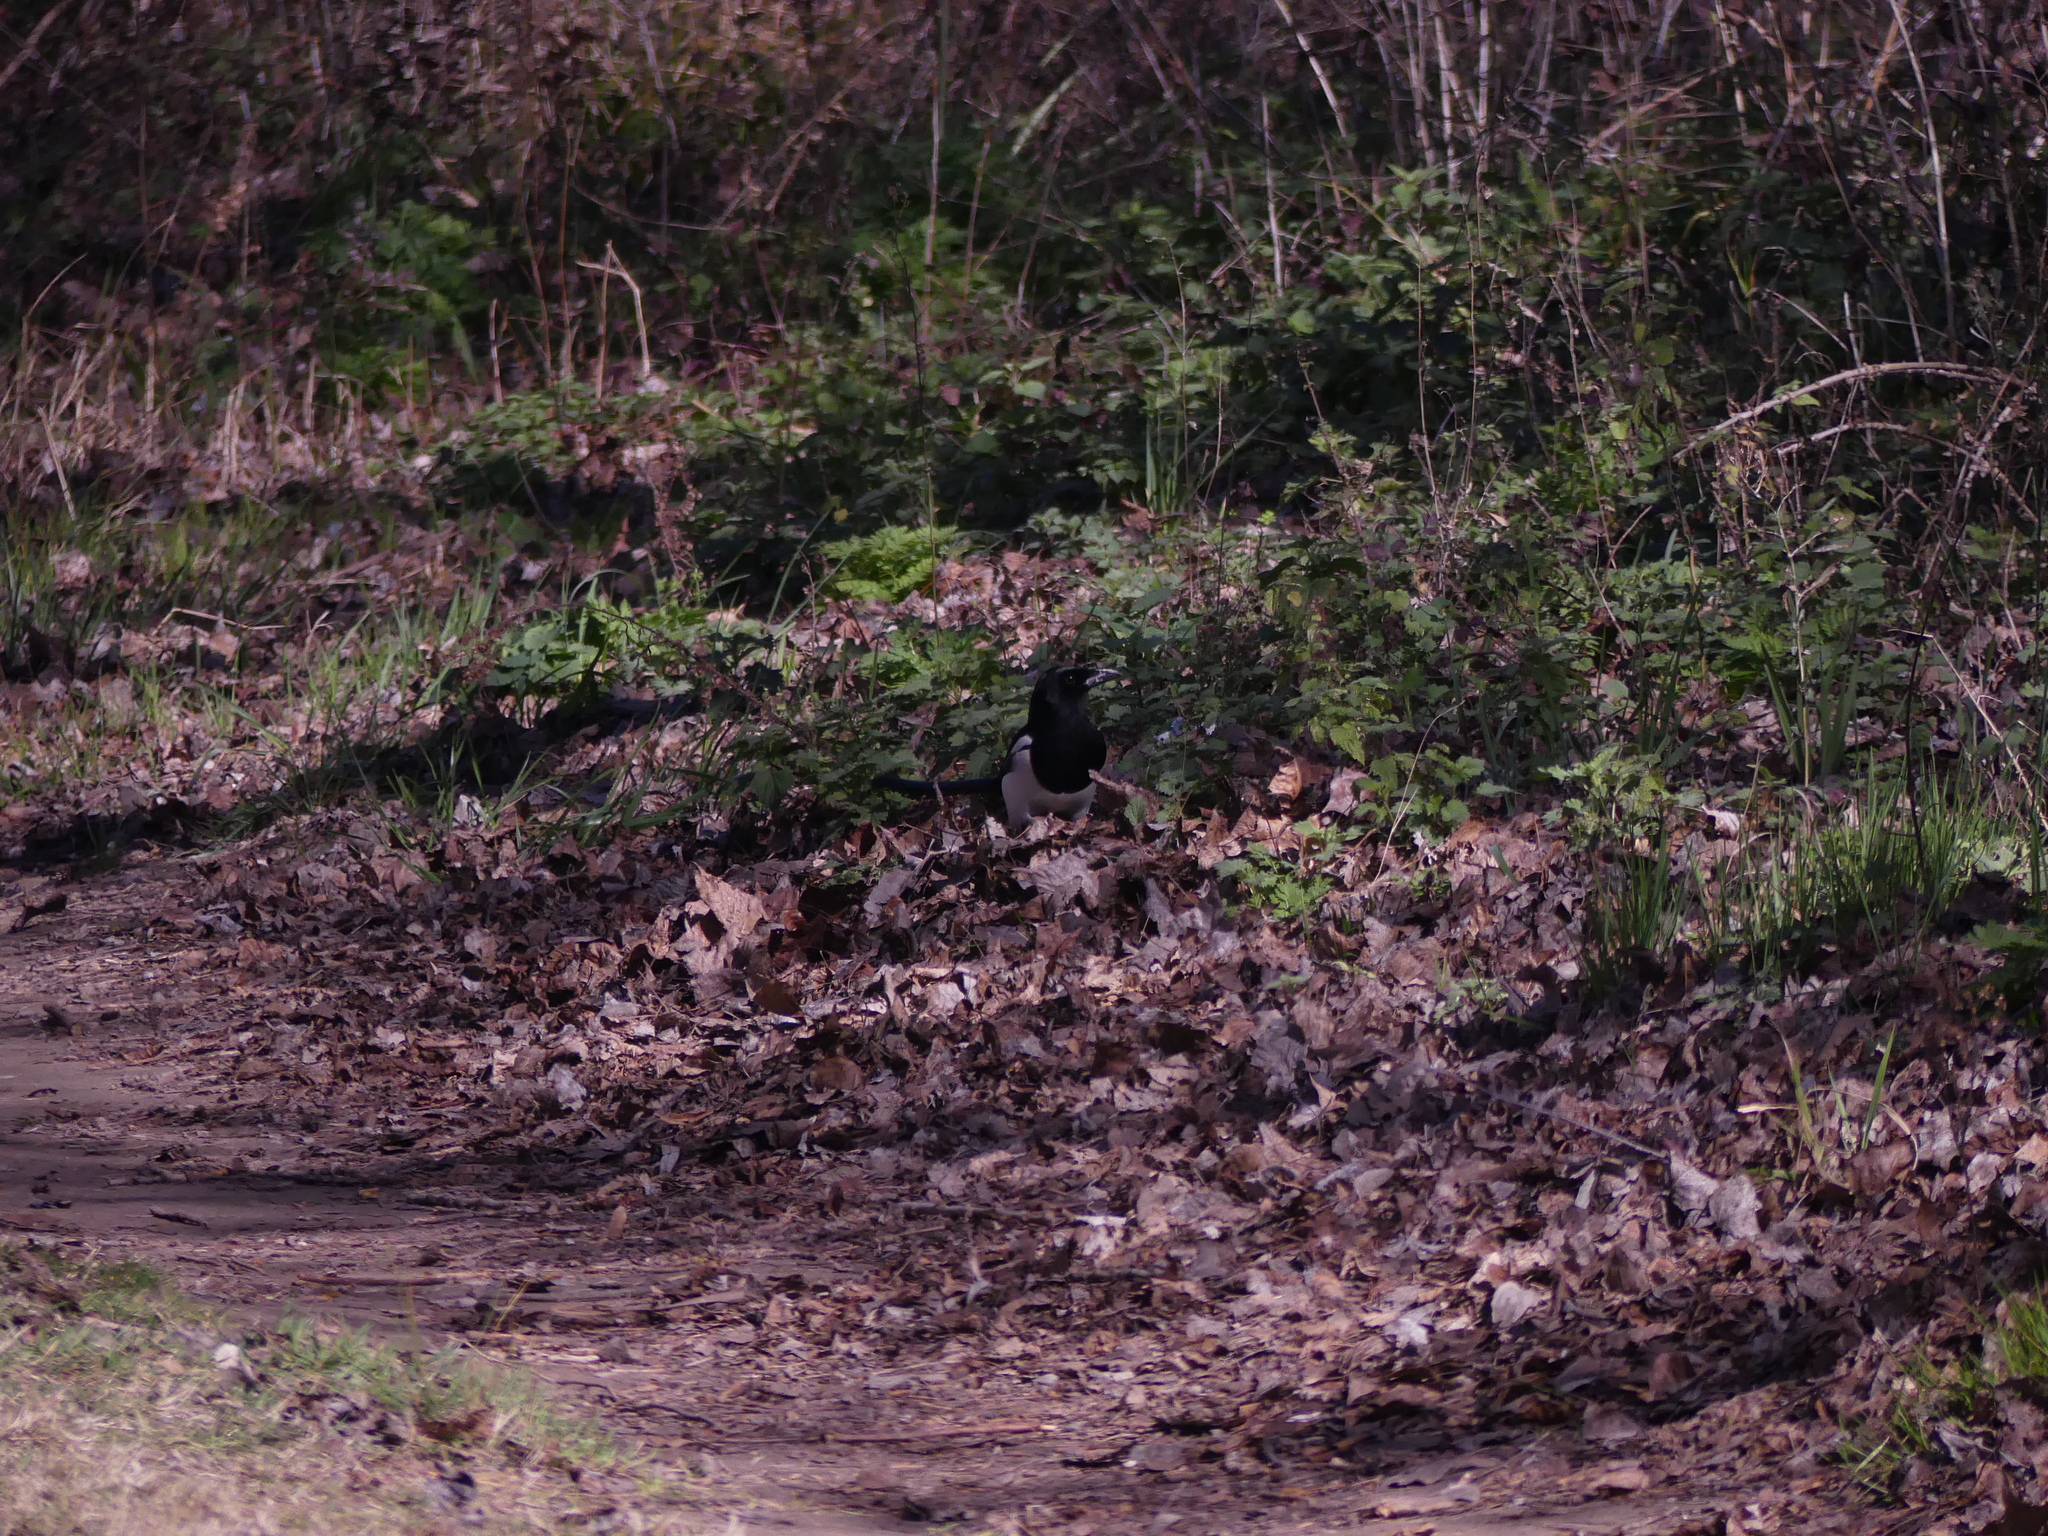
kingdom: Animalia
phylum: Chordata
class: Aves
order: Passeriformes
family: Corvidae
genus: Pica
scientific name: Pica pica
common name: Eurasian magpie
